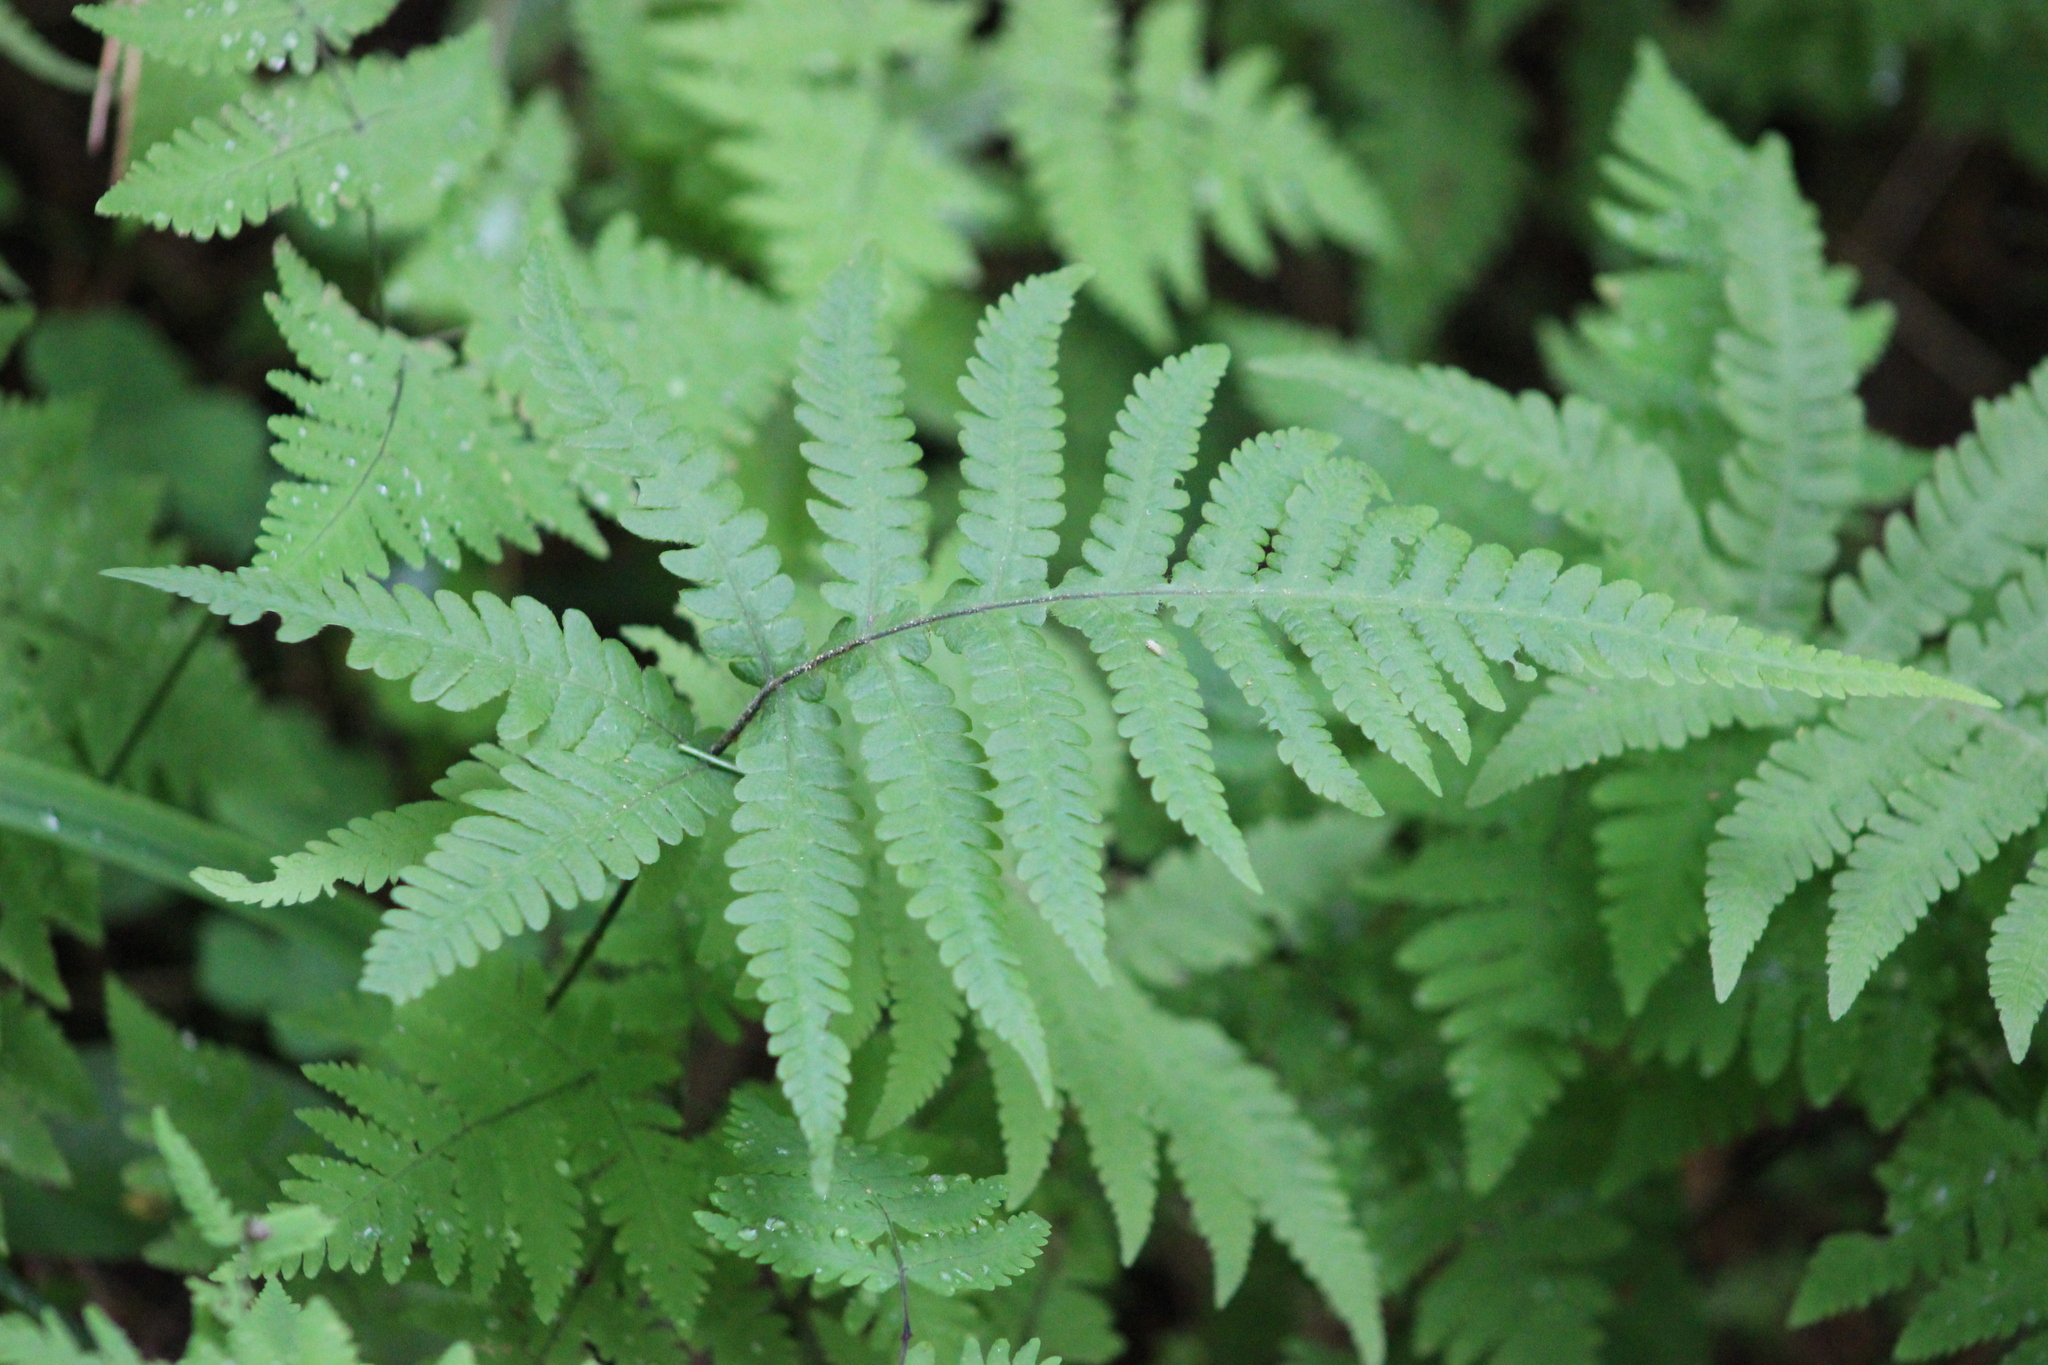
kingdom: Plantae
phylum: Tracheophyta
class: Polypodiopsida
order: Polypodiales
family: Thelypteridaceae
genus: Phegopteris
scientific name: Phegopteris connectilis
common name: Beech fern
